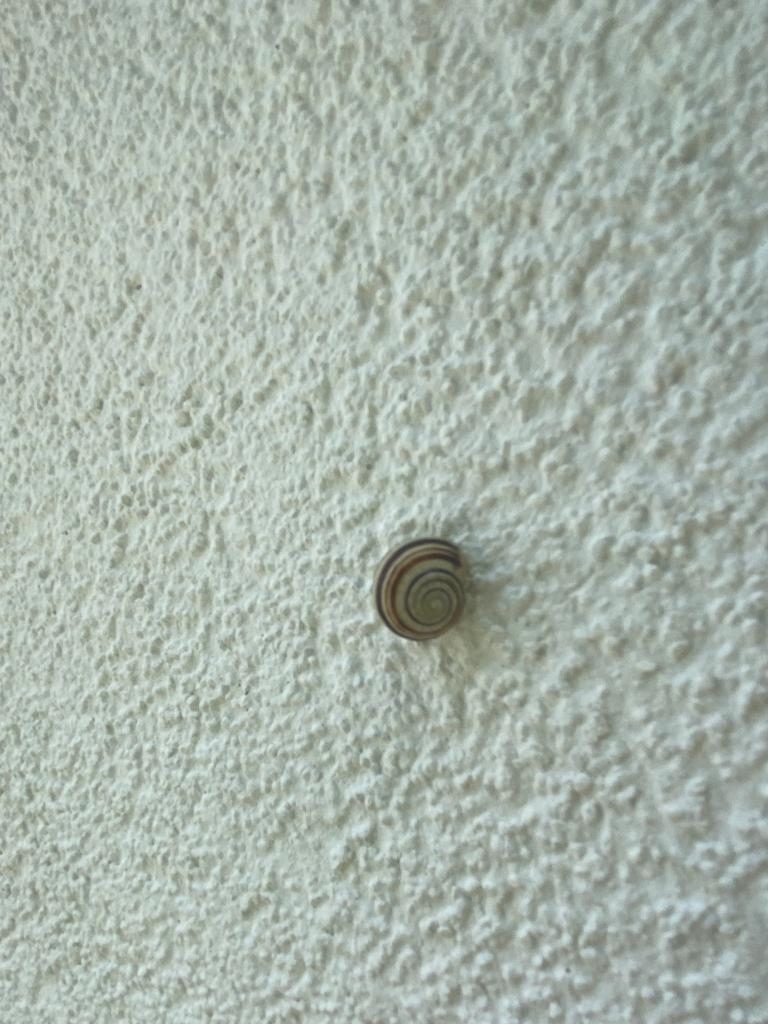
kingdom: Animalia
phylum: Mollusca
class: Gastropoda
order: Stylommatophora
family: Helicidae
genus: Cepaea
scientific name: Cepaea
